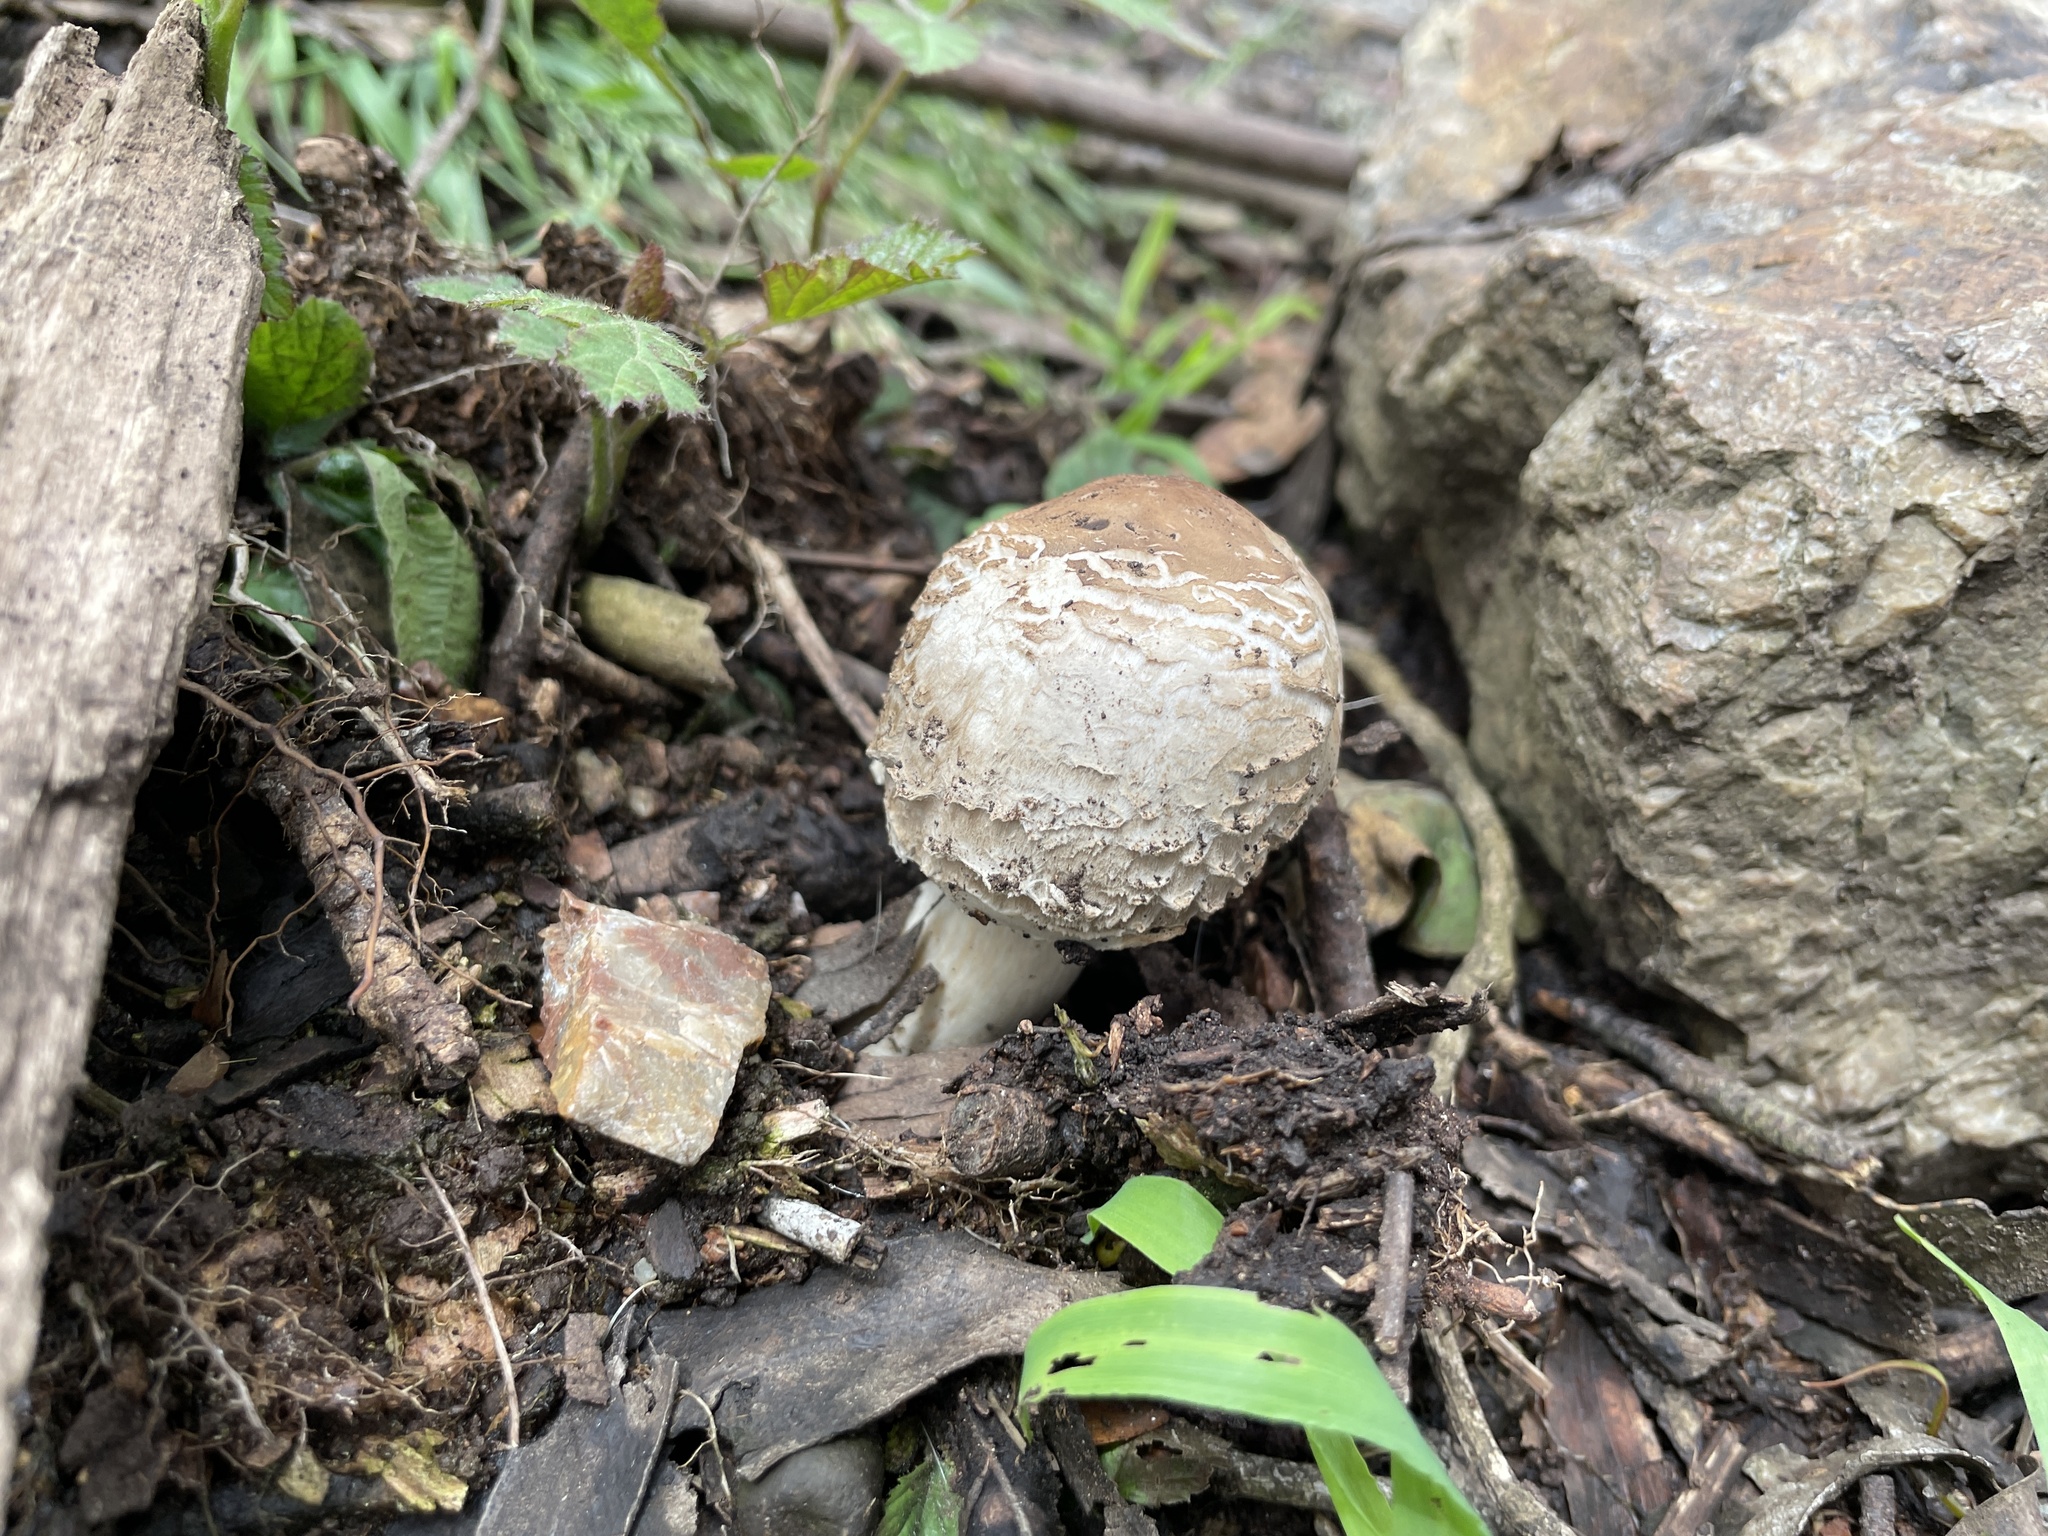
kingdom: Fungi
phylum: Basidiomycota
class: Agaricomycetes
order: Agaricales
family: Agaricaceae
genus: Chlorophyllum
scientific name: Chlorophyllum brunneum
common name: Brown parasol
